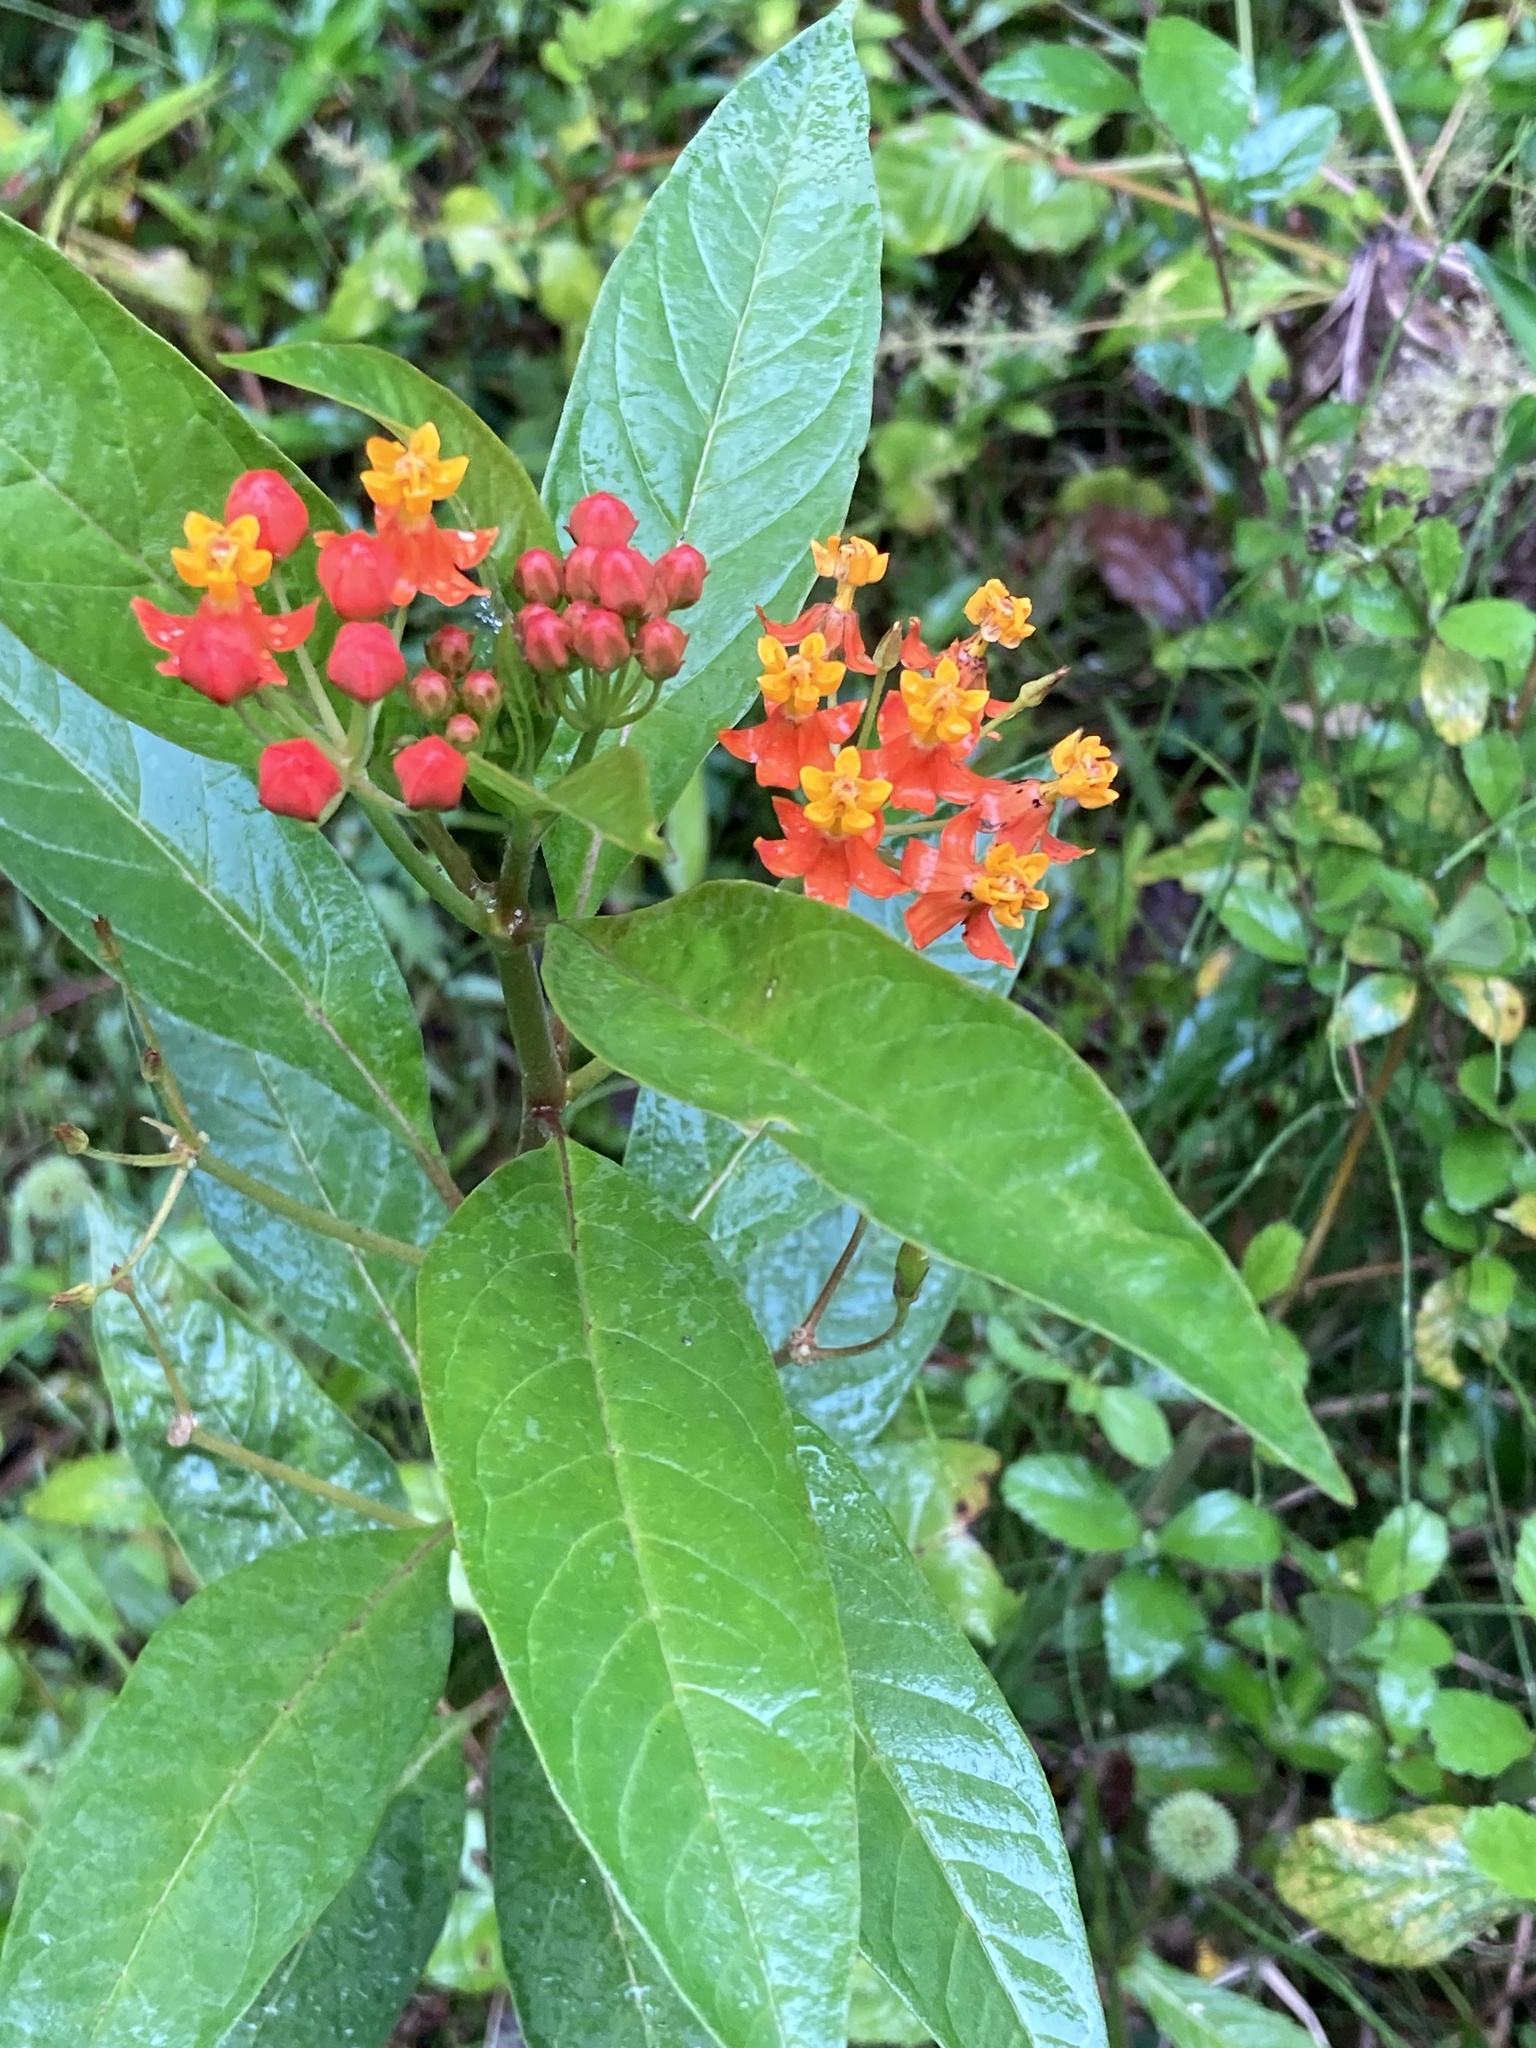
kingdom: Plantae
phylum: Tracheophyta
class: Magnoliopsida
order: Gentianales
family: Apocynaceae
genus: Asclepias
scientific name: Asclepias curassavica
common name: Bloodflower
